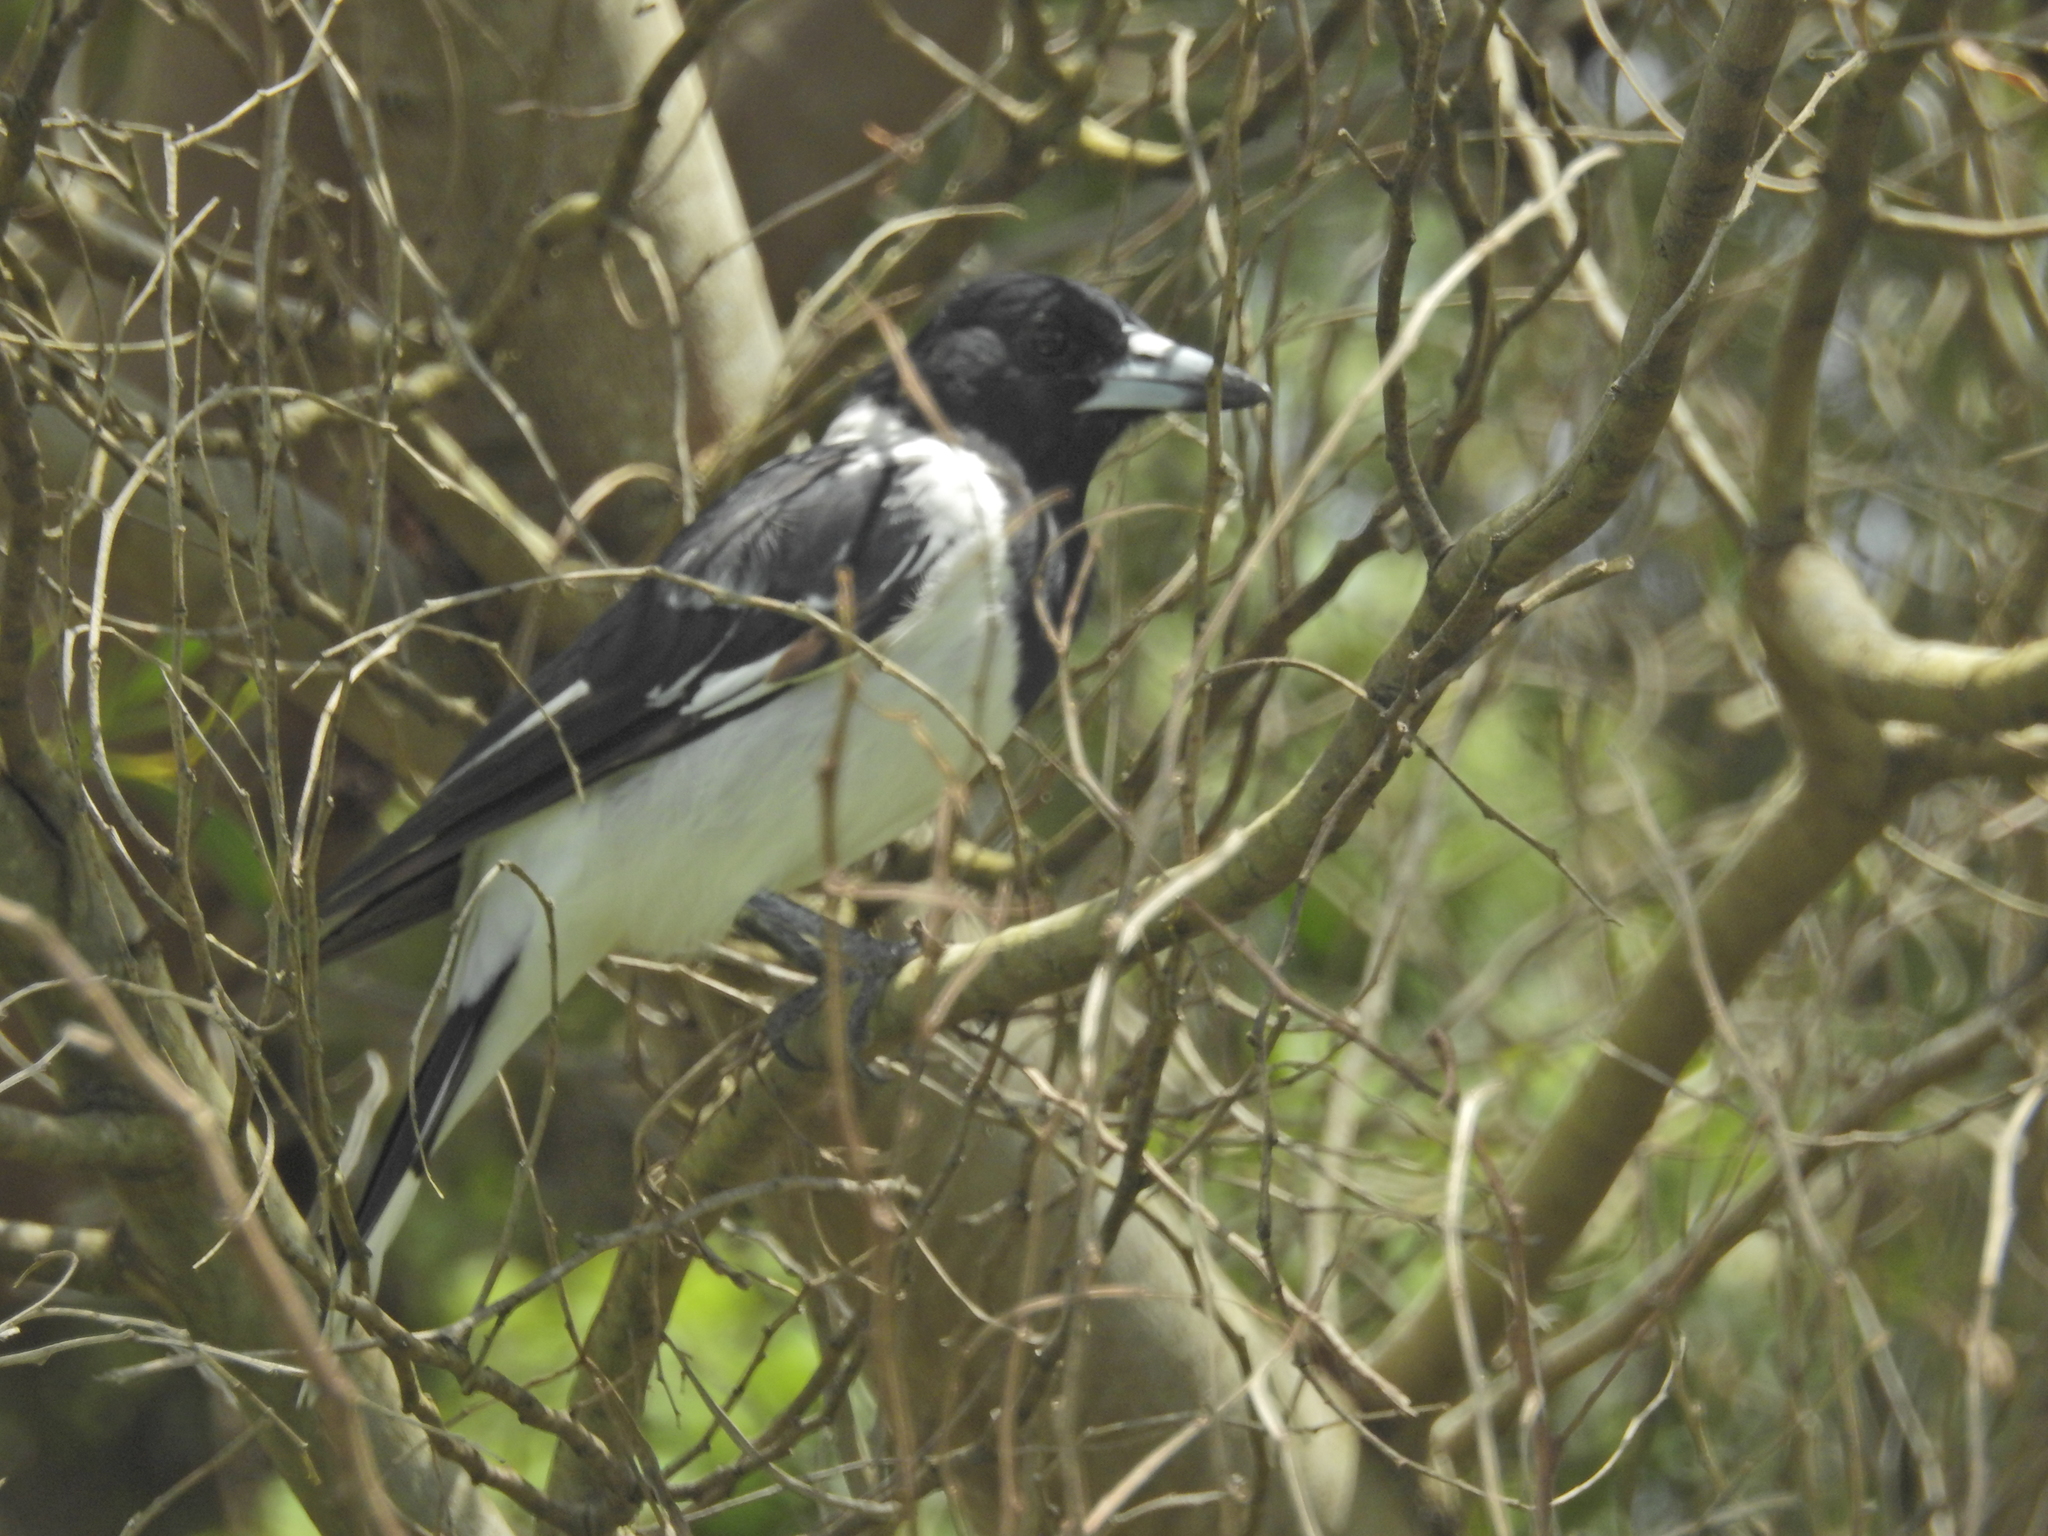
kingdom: Animalia
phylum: Chordata
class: Aves
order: Passeriformes
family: Cracticidae
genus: Cracticus
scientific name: Cracticus nigrogularis
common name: Pied butcherbird
